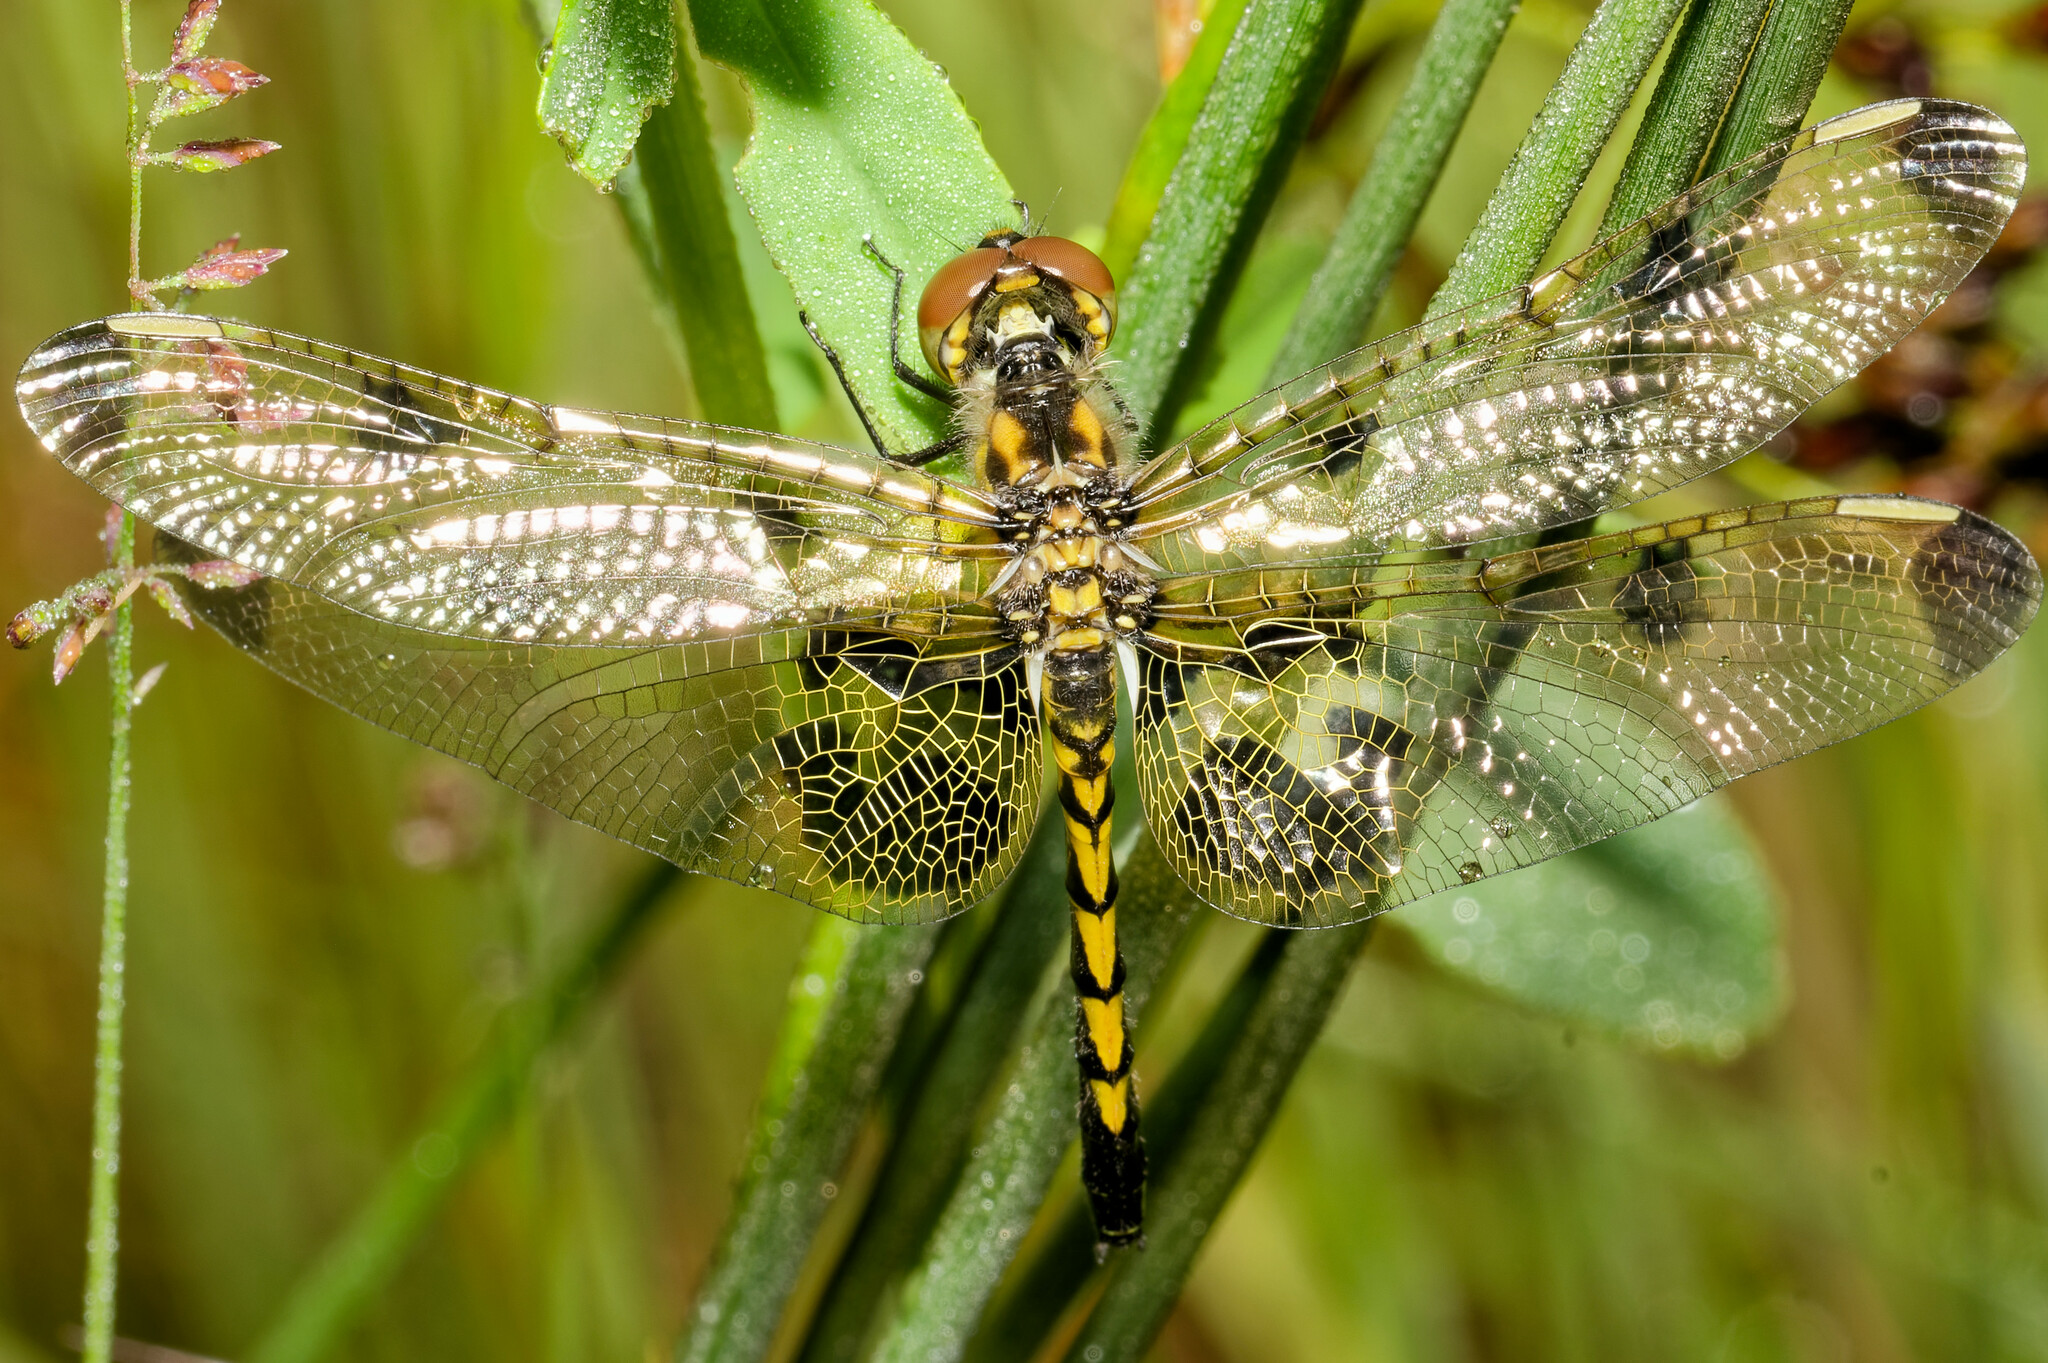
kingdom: Animalia
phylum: Arthropoda
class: Insecta
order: Odonata
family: Libellulidae
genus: Celithemis
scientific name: Celithemis elisa
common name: Calico pennant
